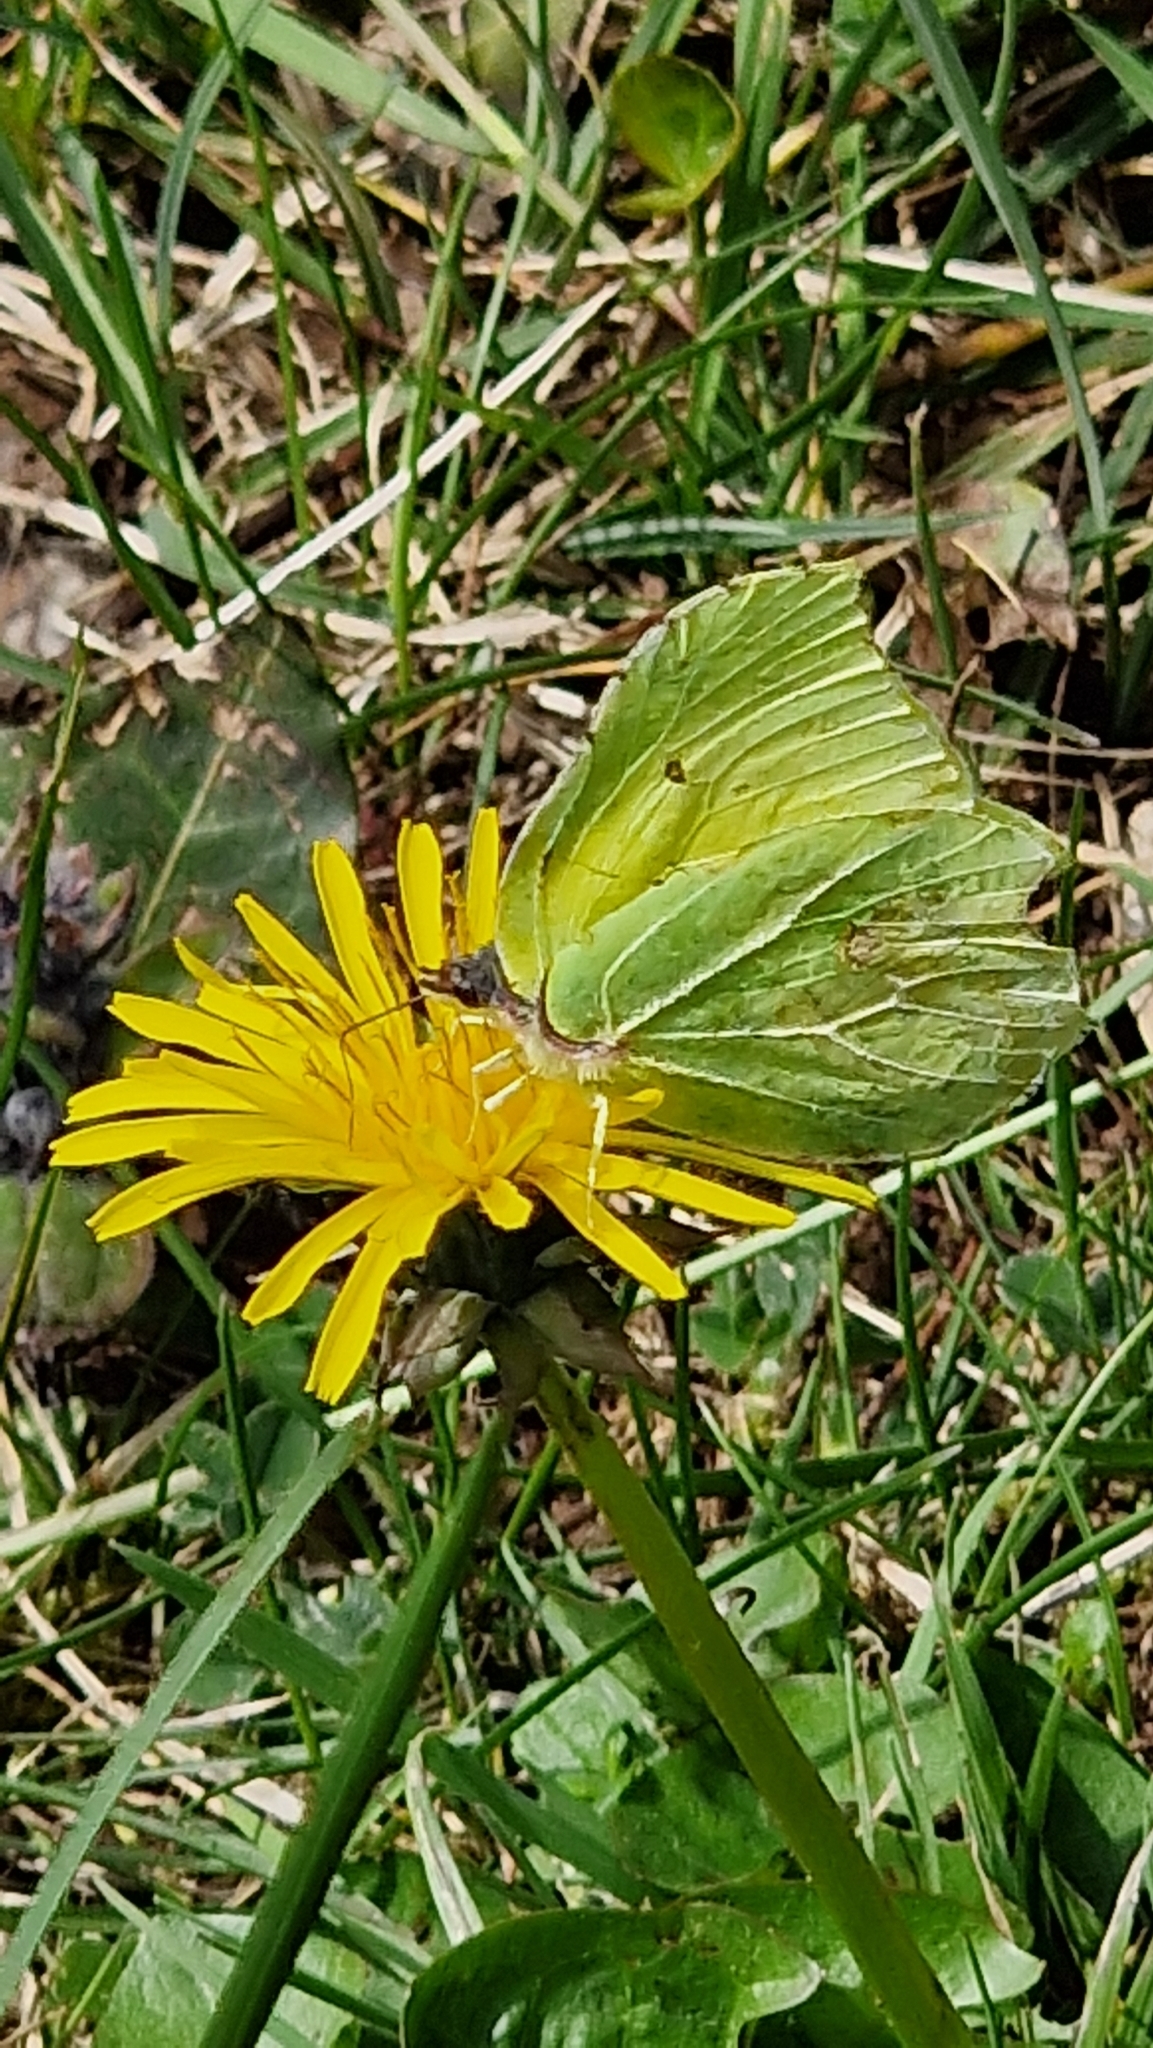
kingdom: Animalia
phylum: Arthropoda
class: Insecta
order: Lepidoptera
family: Pieridae
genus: Gonepteryx
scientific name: Gonepteryx rhamni
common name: Brimstone
